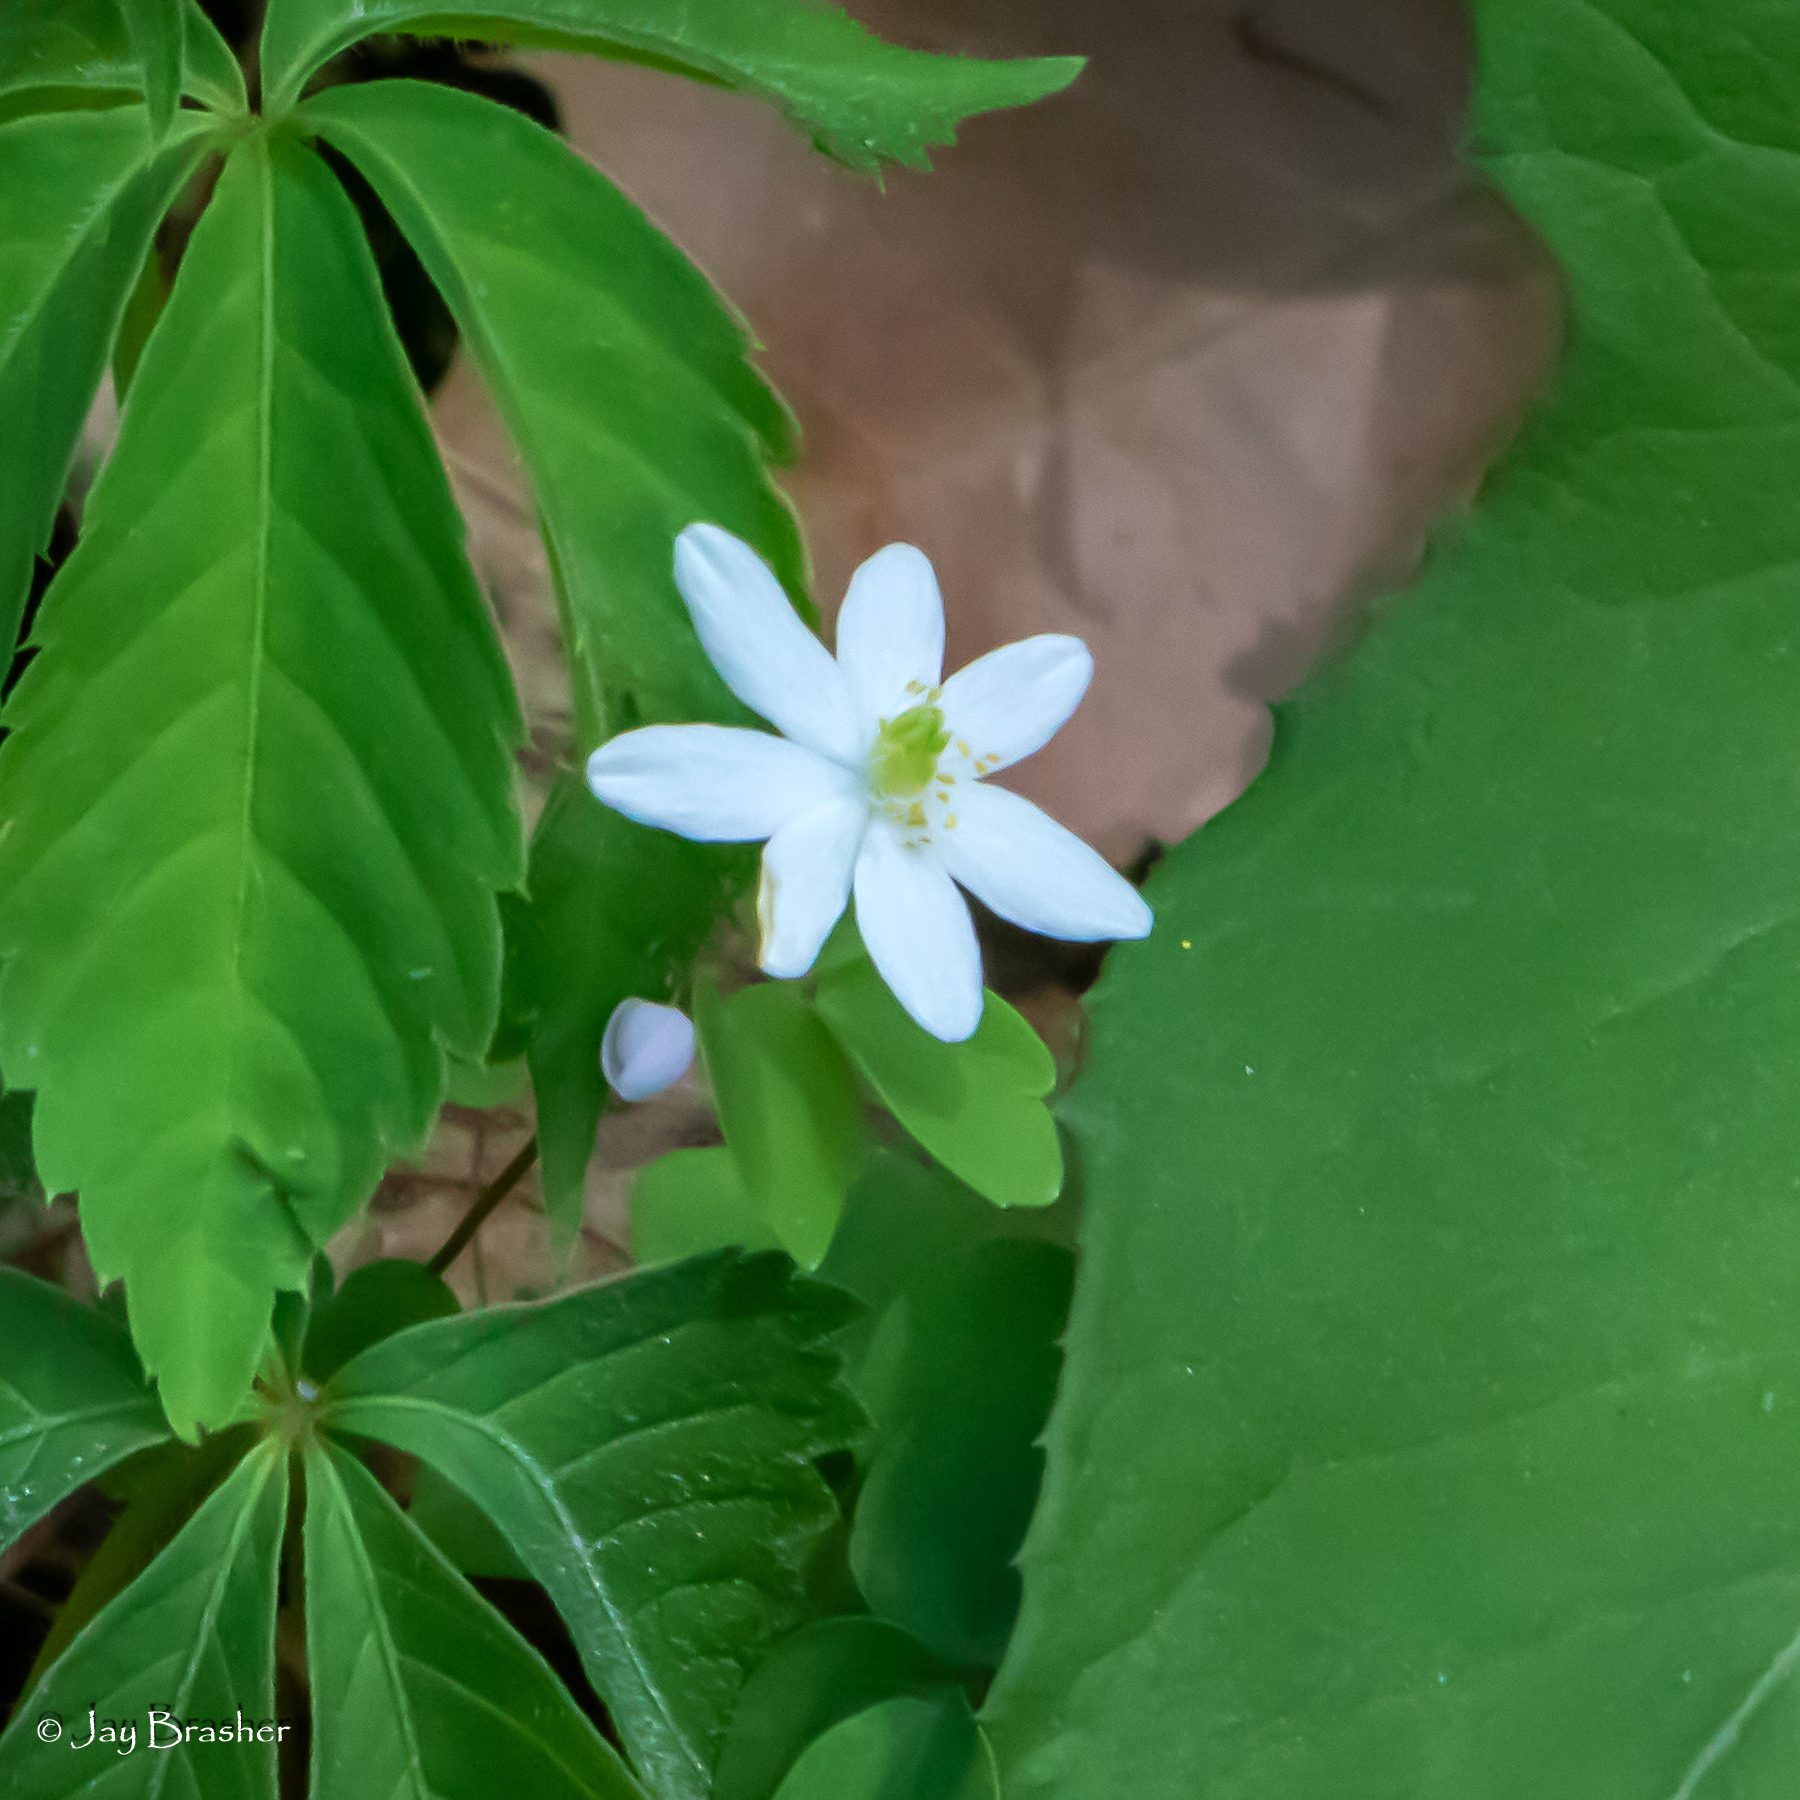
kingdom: Plantae
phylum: Tracheophyta
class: Magnoliopsida
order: Ranunculales
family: Ranunculaceae
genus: Thalictrum
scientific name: Thalictrum thalictroides
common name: Rue-anemone
